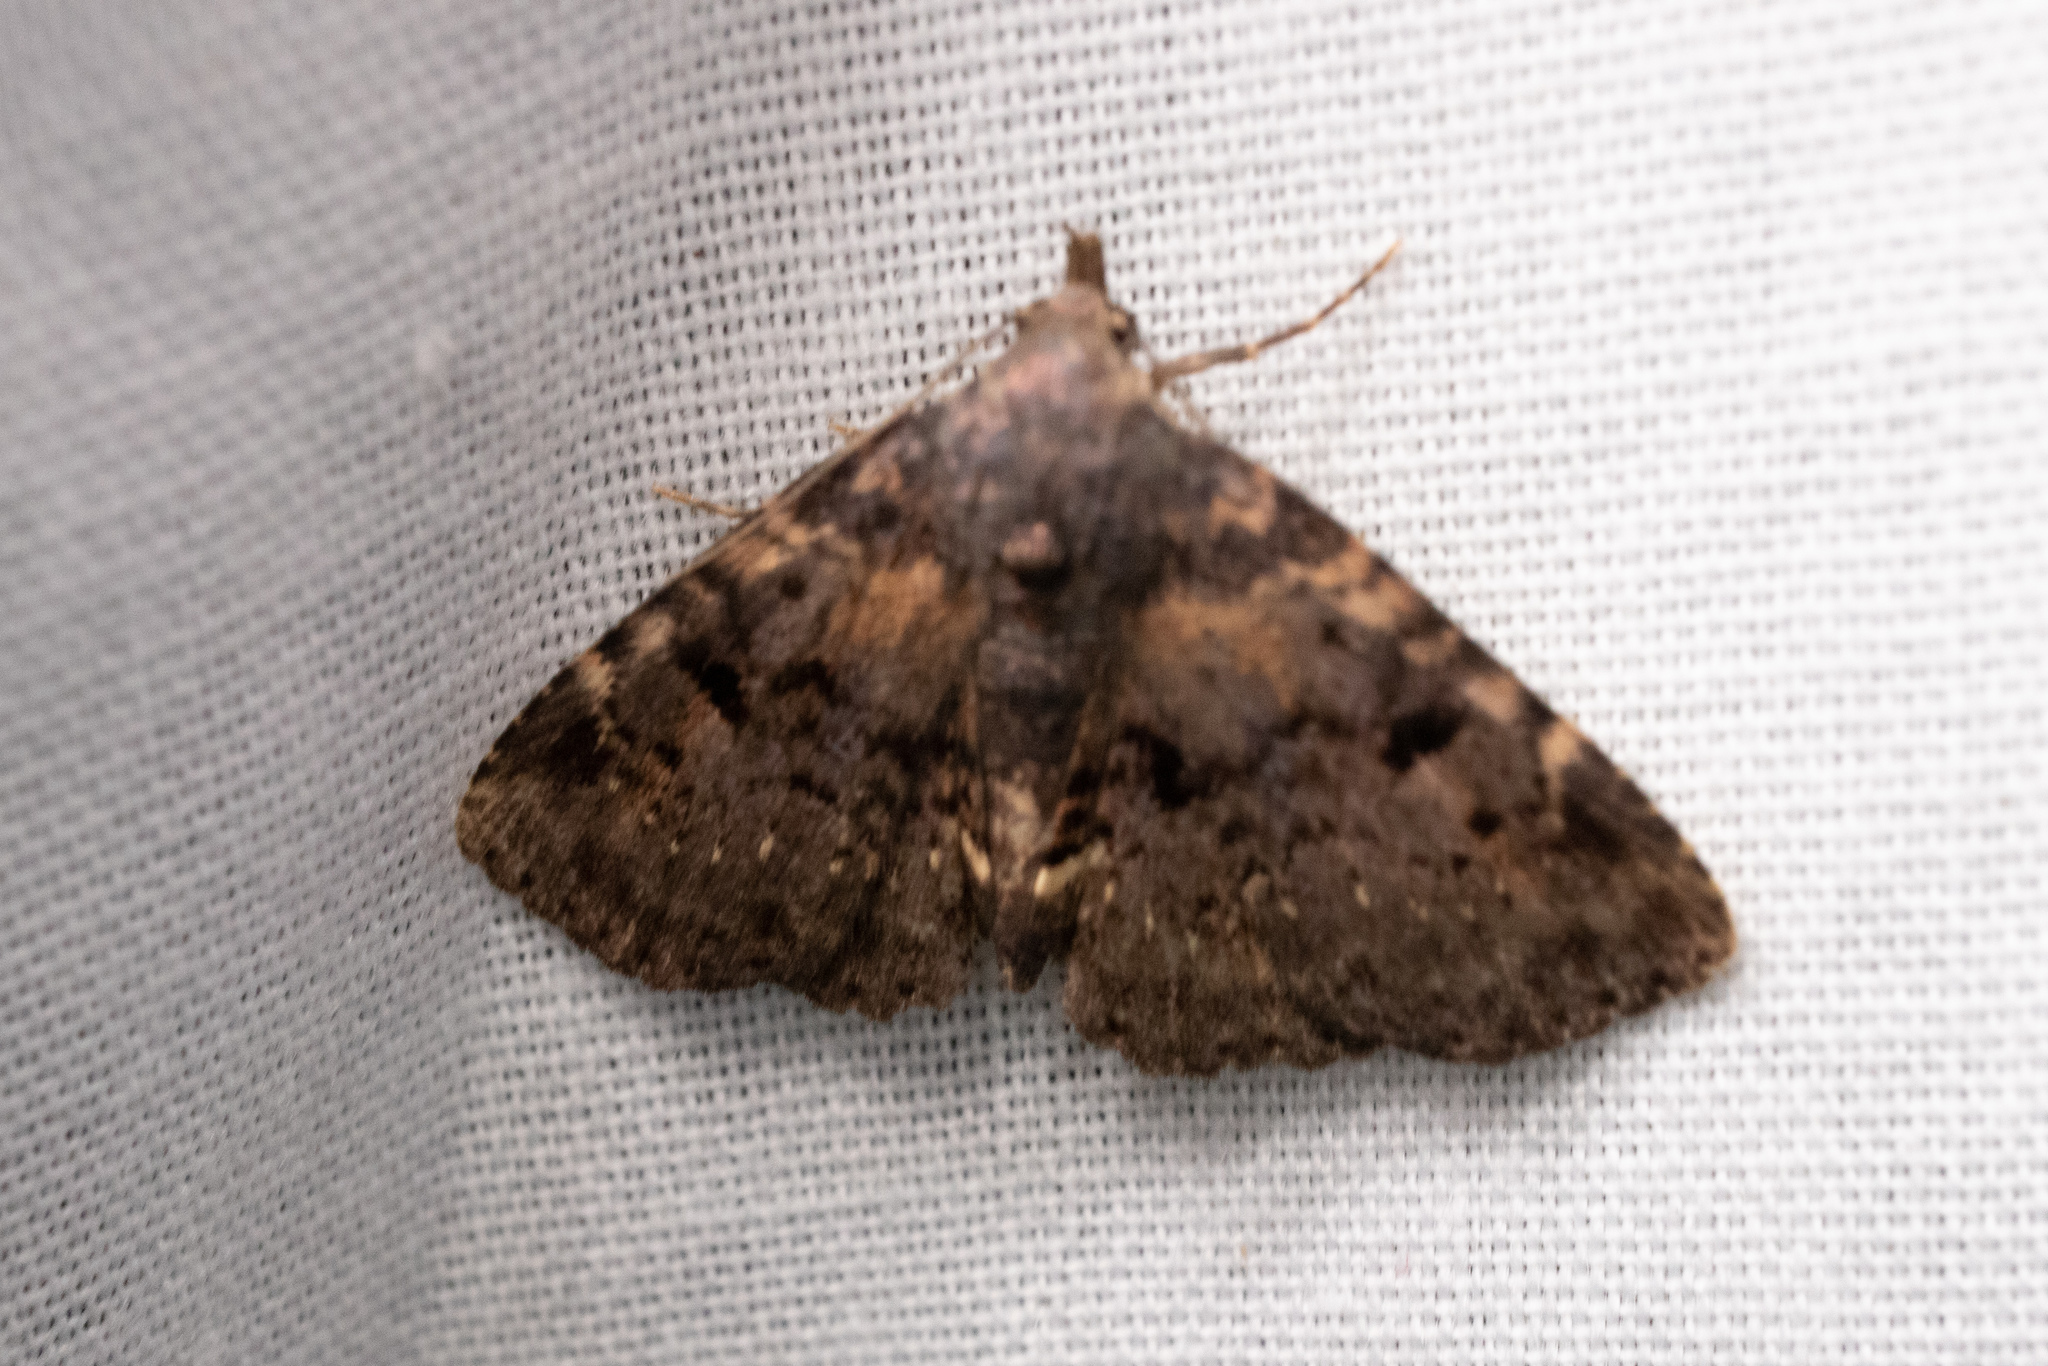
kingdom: Animalia
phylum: Arthropoda
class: Insecta
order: Lepidoptera
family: Erebidae
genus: Metalectra
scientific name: Metalectra discalis
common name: Common fungus moth
